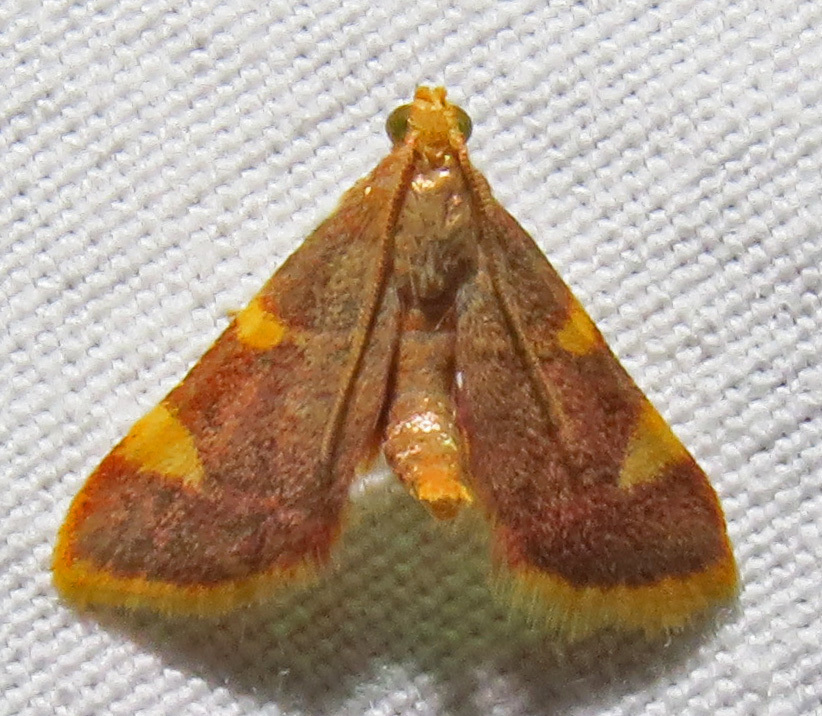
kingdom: Animalia
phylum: Arthropoda
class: Insecta
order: Lepidoptera
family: Pyralidae
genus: Hypsopygia
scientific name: Hypsopygia costalis
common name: Gold triangle
